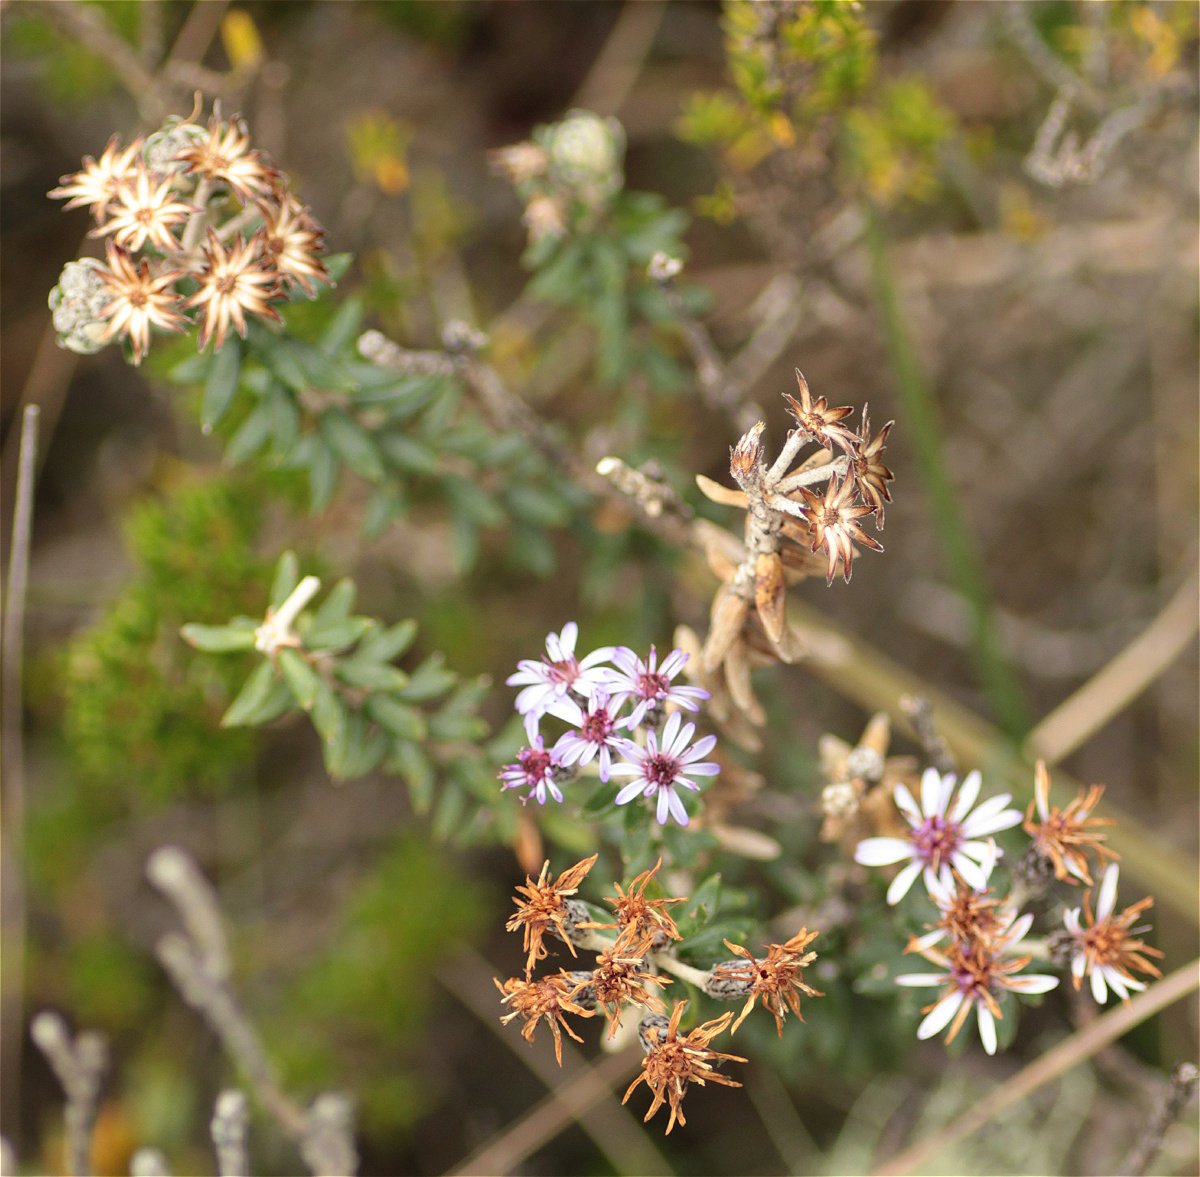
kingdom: Plantae
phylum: Tracheophyta
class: Magnoliopsida
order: Asterales
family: Asteraceae
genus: Linochilus
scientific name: Linochilus phylicoides
